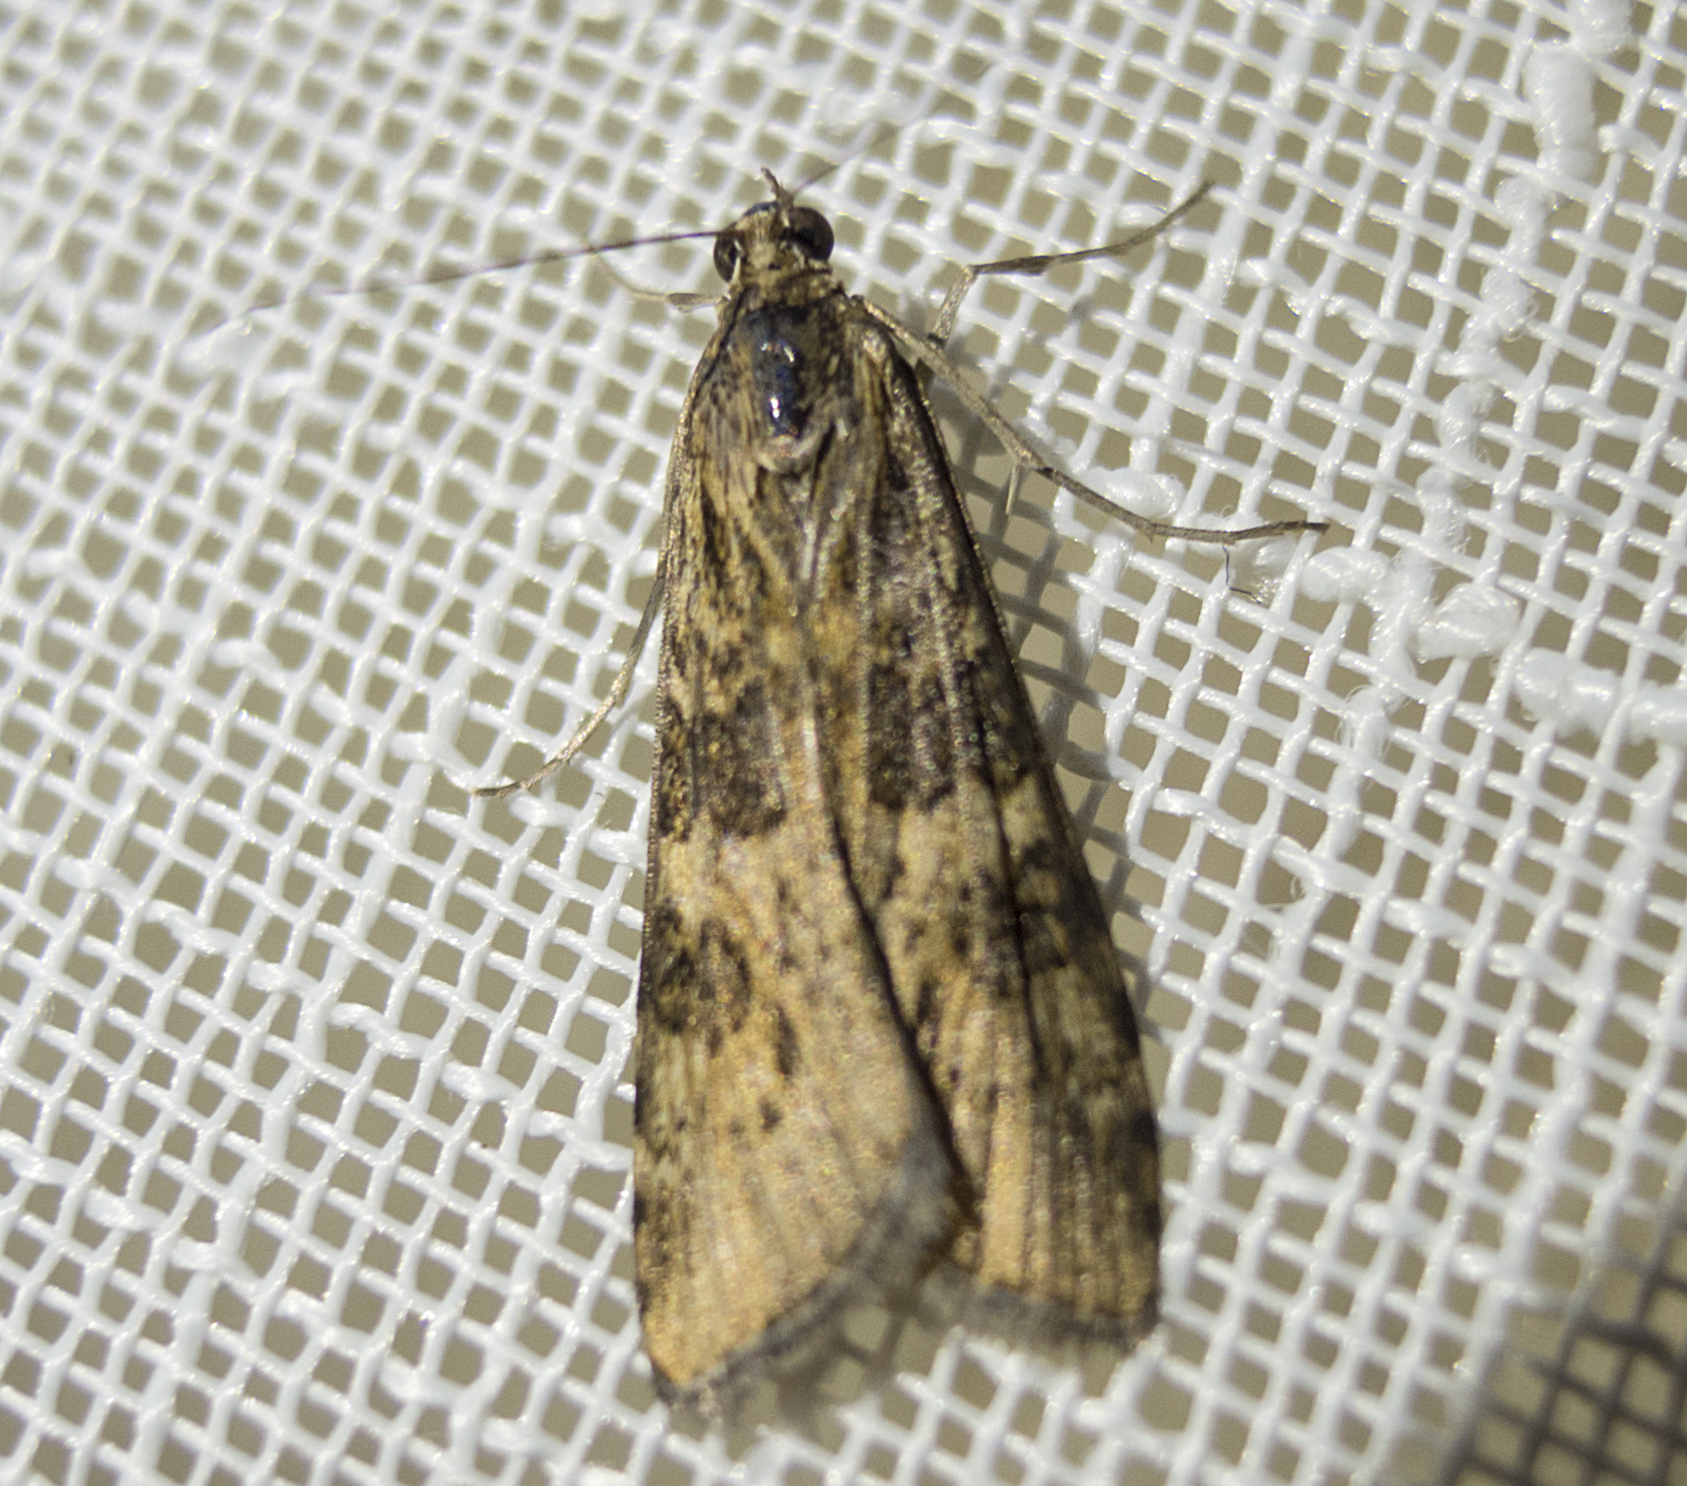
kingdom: Animalia
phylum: Arthropoda
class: Insecta
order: Lepidoptera
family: Crambidae
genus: Nomophila
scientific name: Nomophila noctuella
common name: Rush veneer
